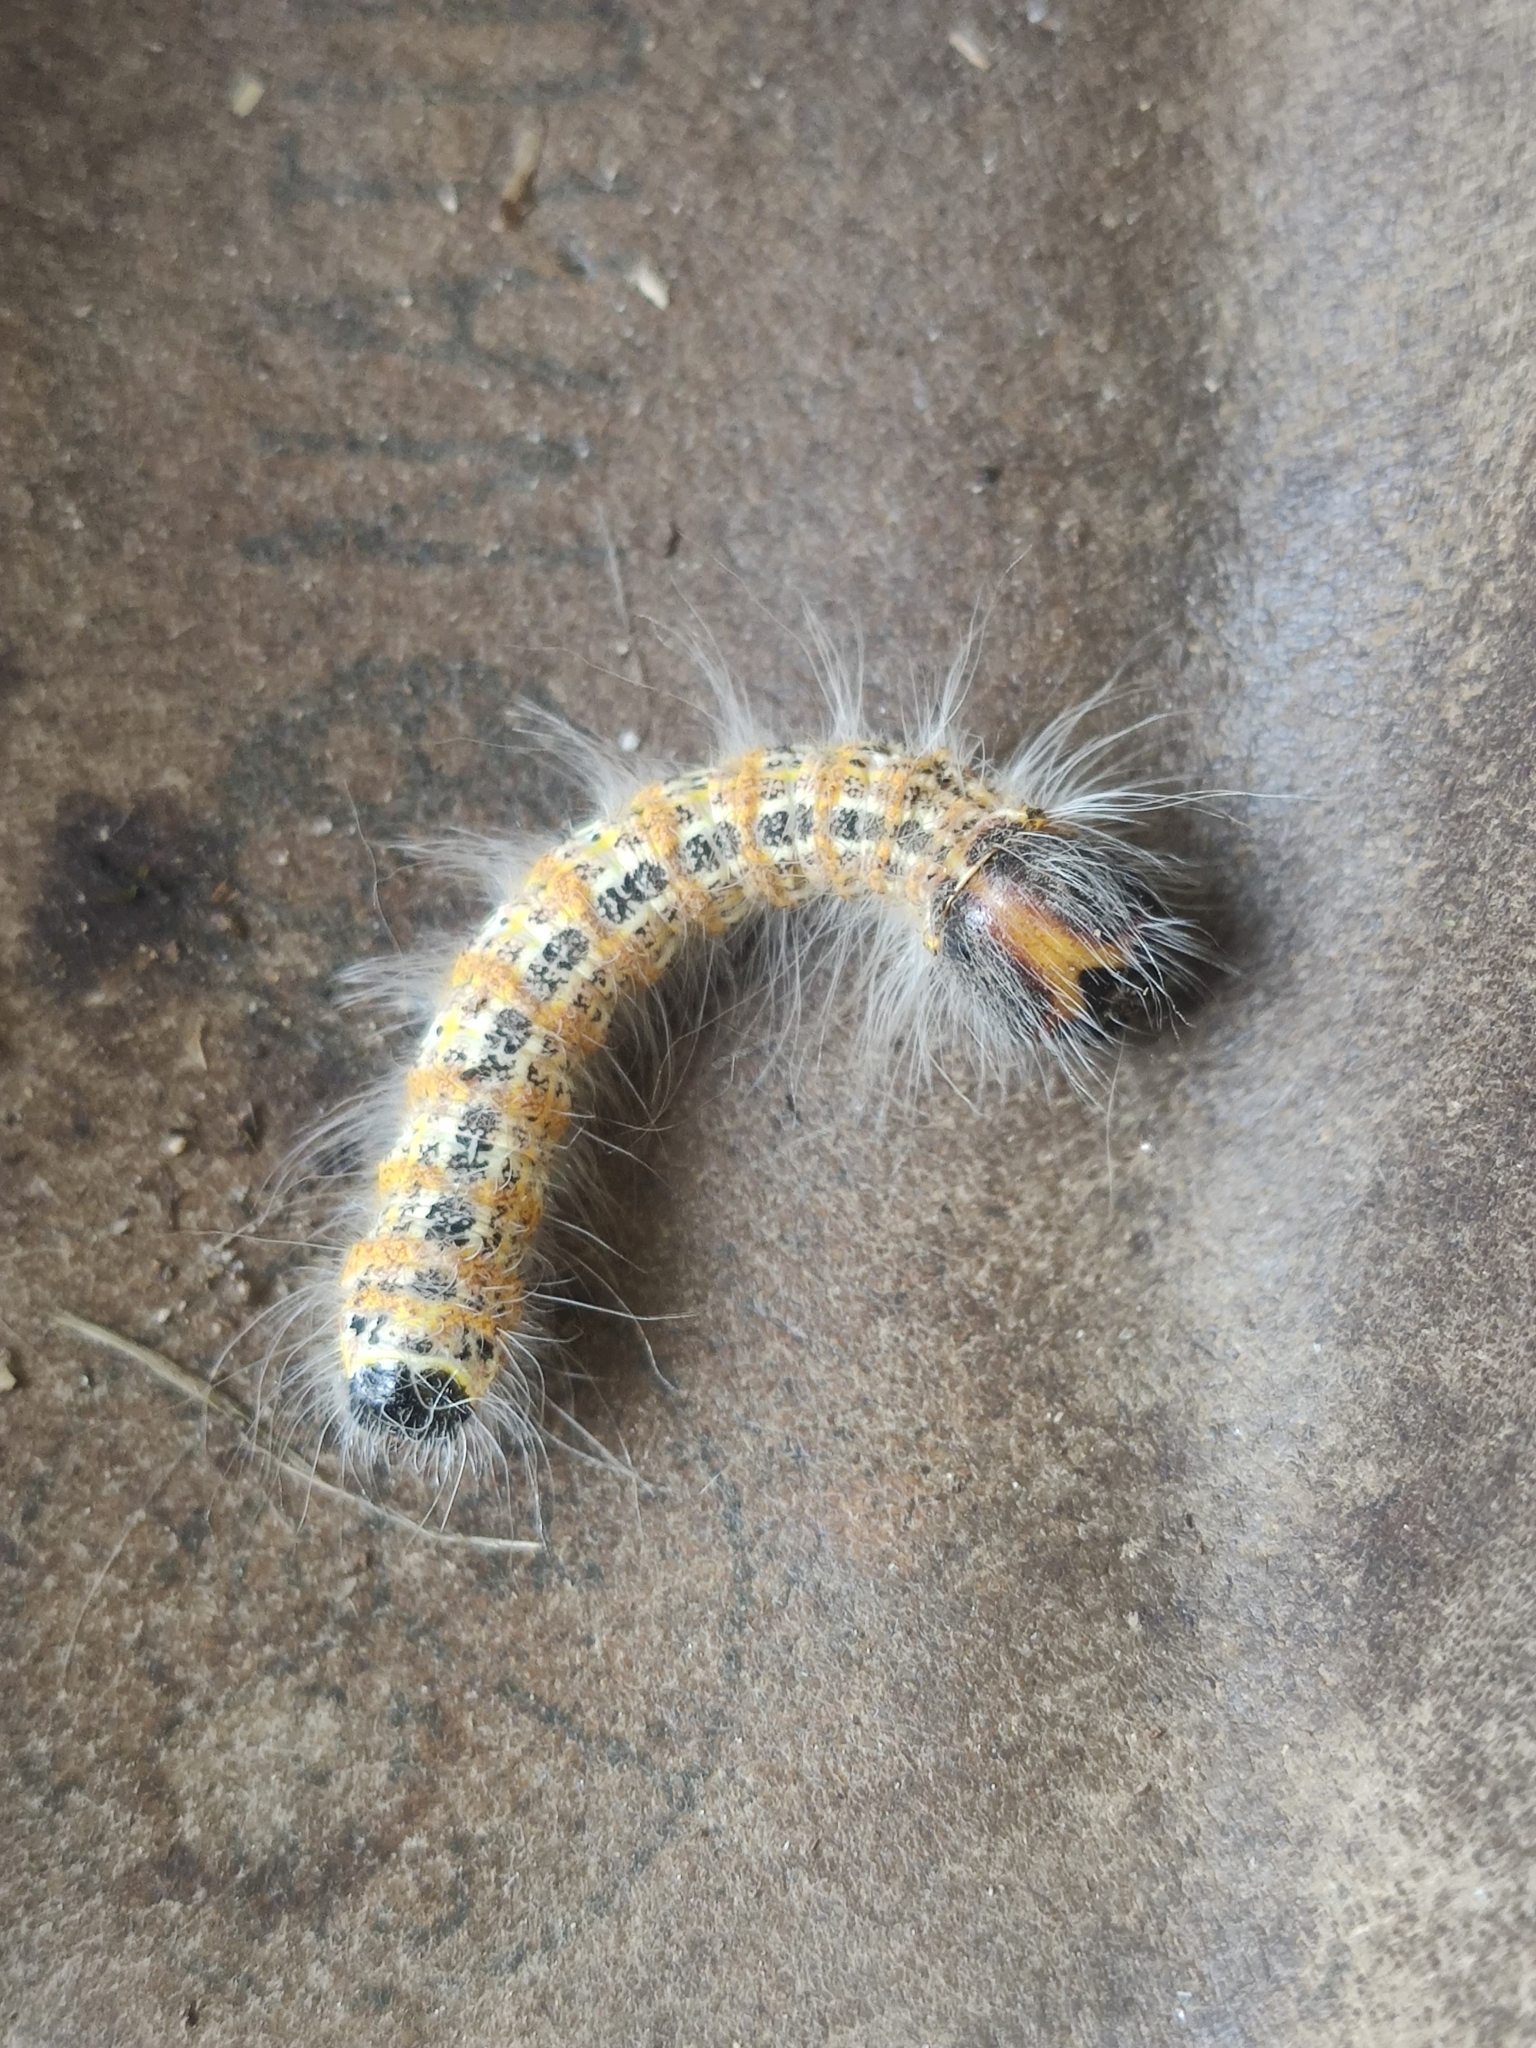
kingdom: Animalia
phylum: Arthropoda
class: Insecta
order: Lepidoptera
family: Notodontidae
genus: Phalera
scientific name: Phalera bucephala
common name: Buff-tip
